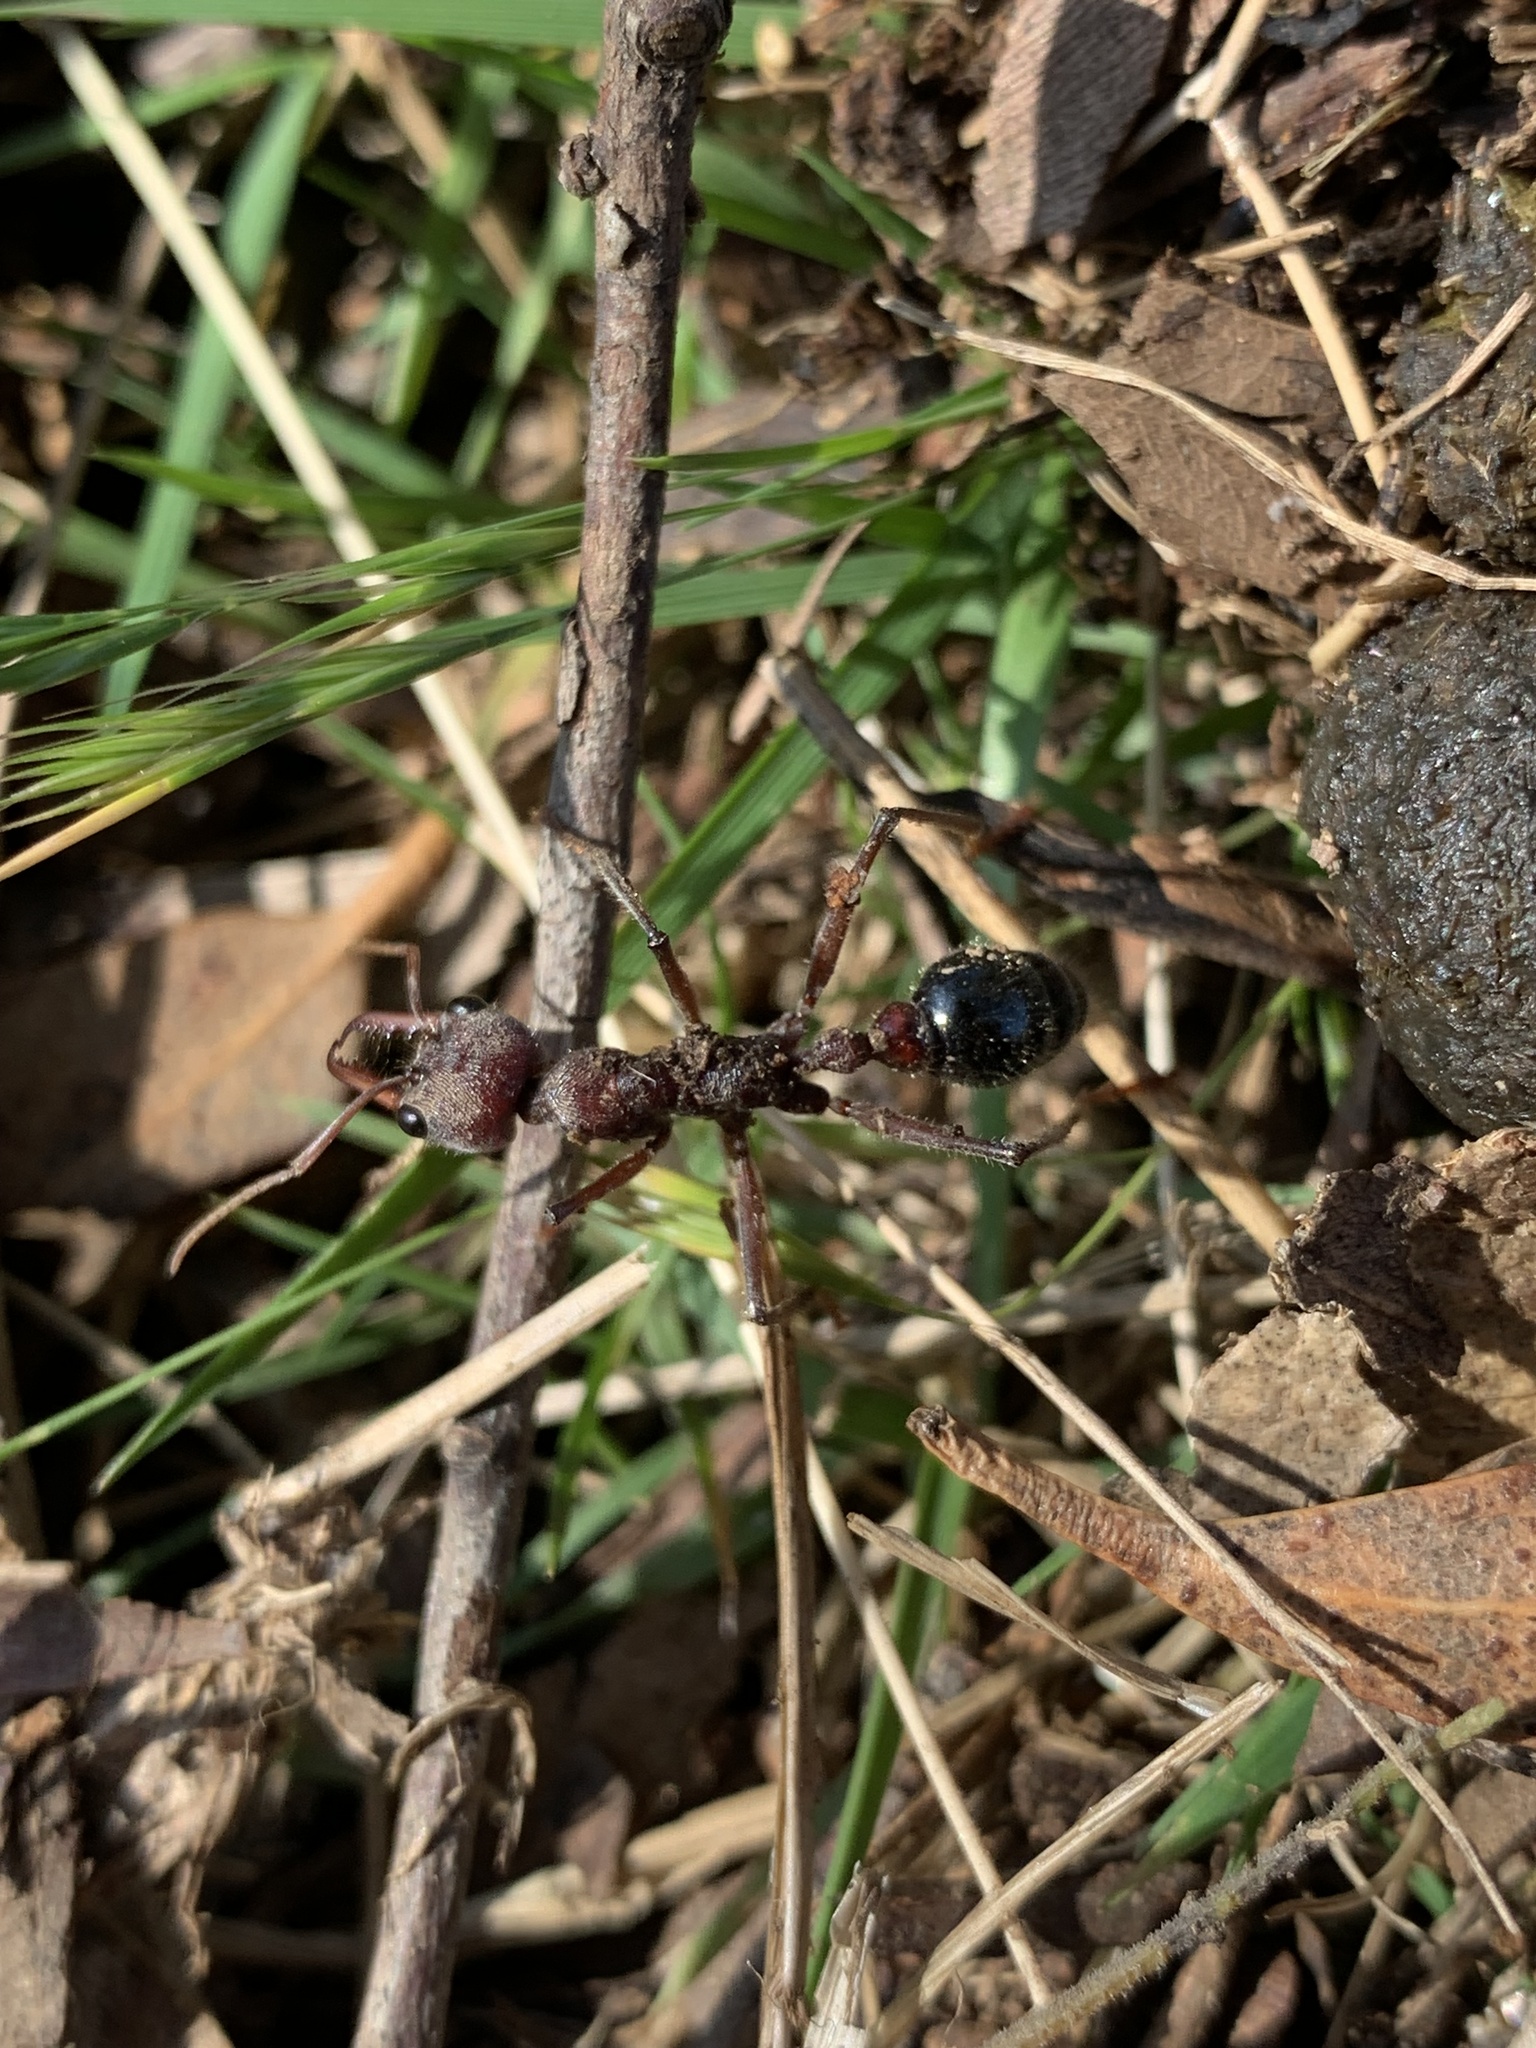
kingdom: Animalia
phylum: Arthropoda
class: Insecta
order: Hymenoptera
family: Formicidae
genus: Myrmecia
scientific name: Myrmecia simillima
